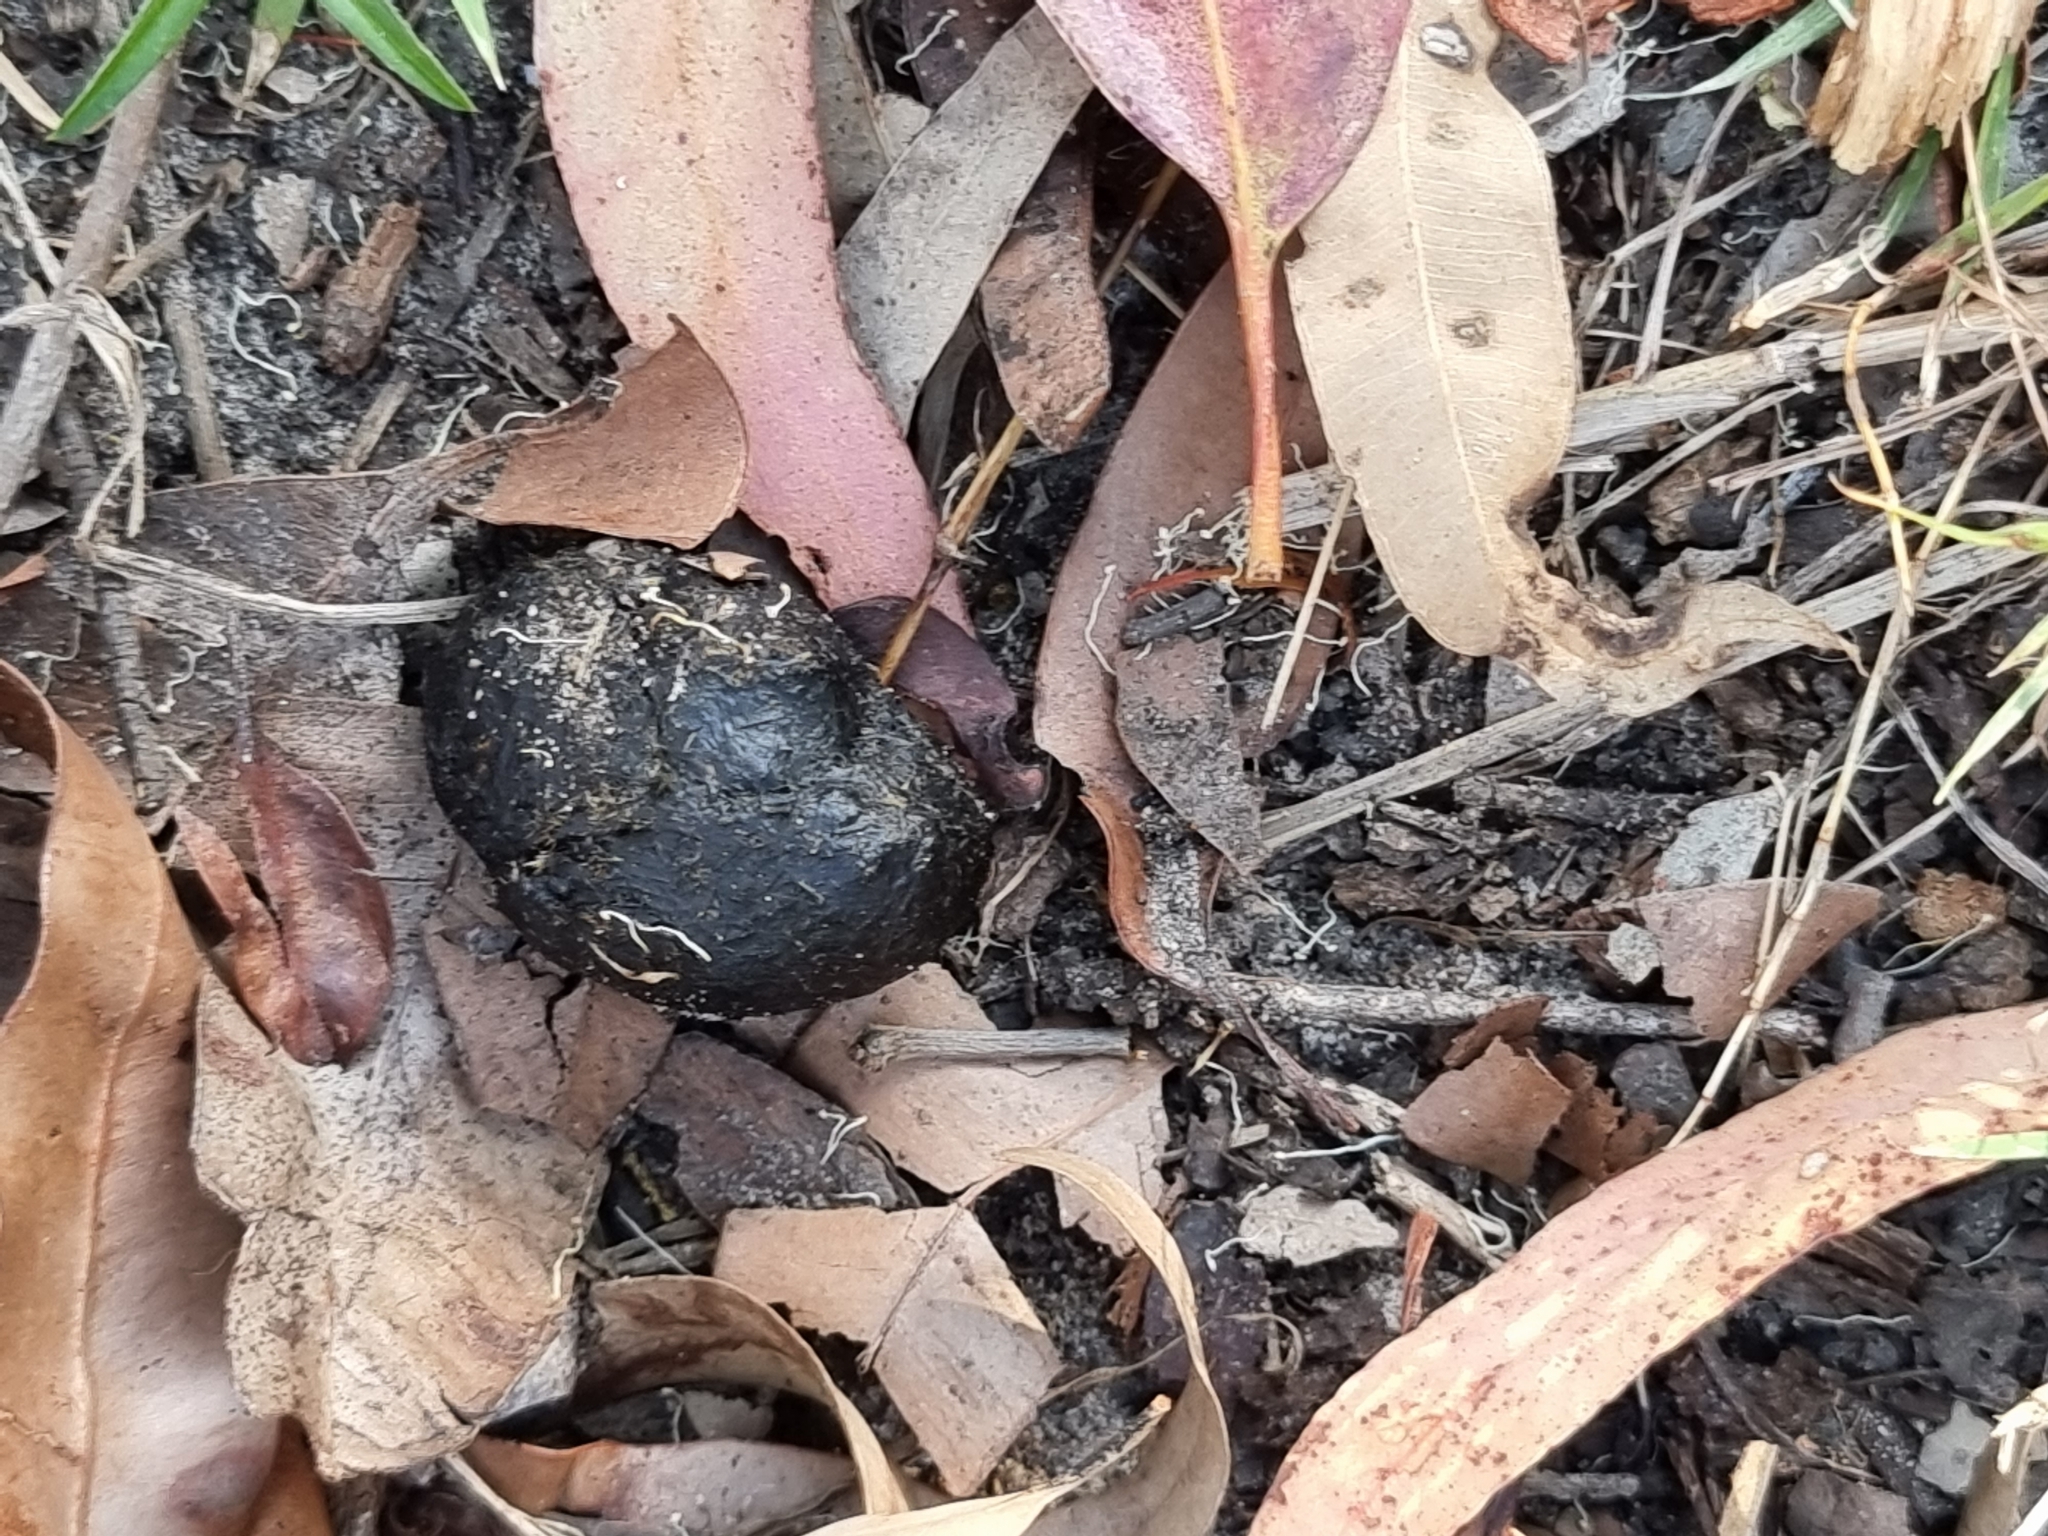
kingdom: Animalia
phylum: Chordata
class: Mammalia
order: Diprotodontia
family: Phalangeridae
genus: Trichosurus
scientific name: Trichosurus vulpecula
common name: Common brushtail
